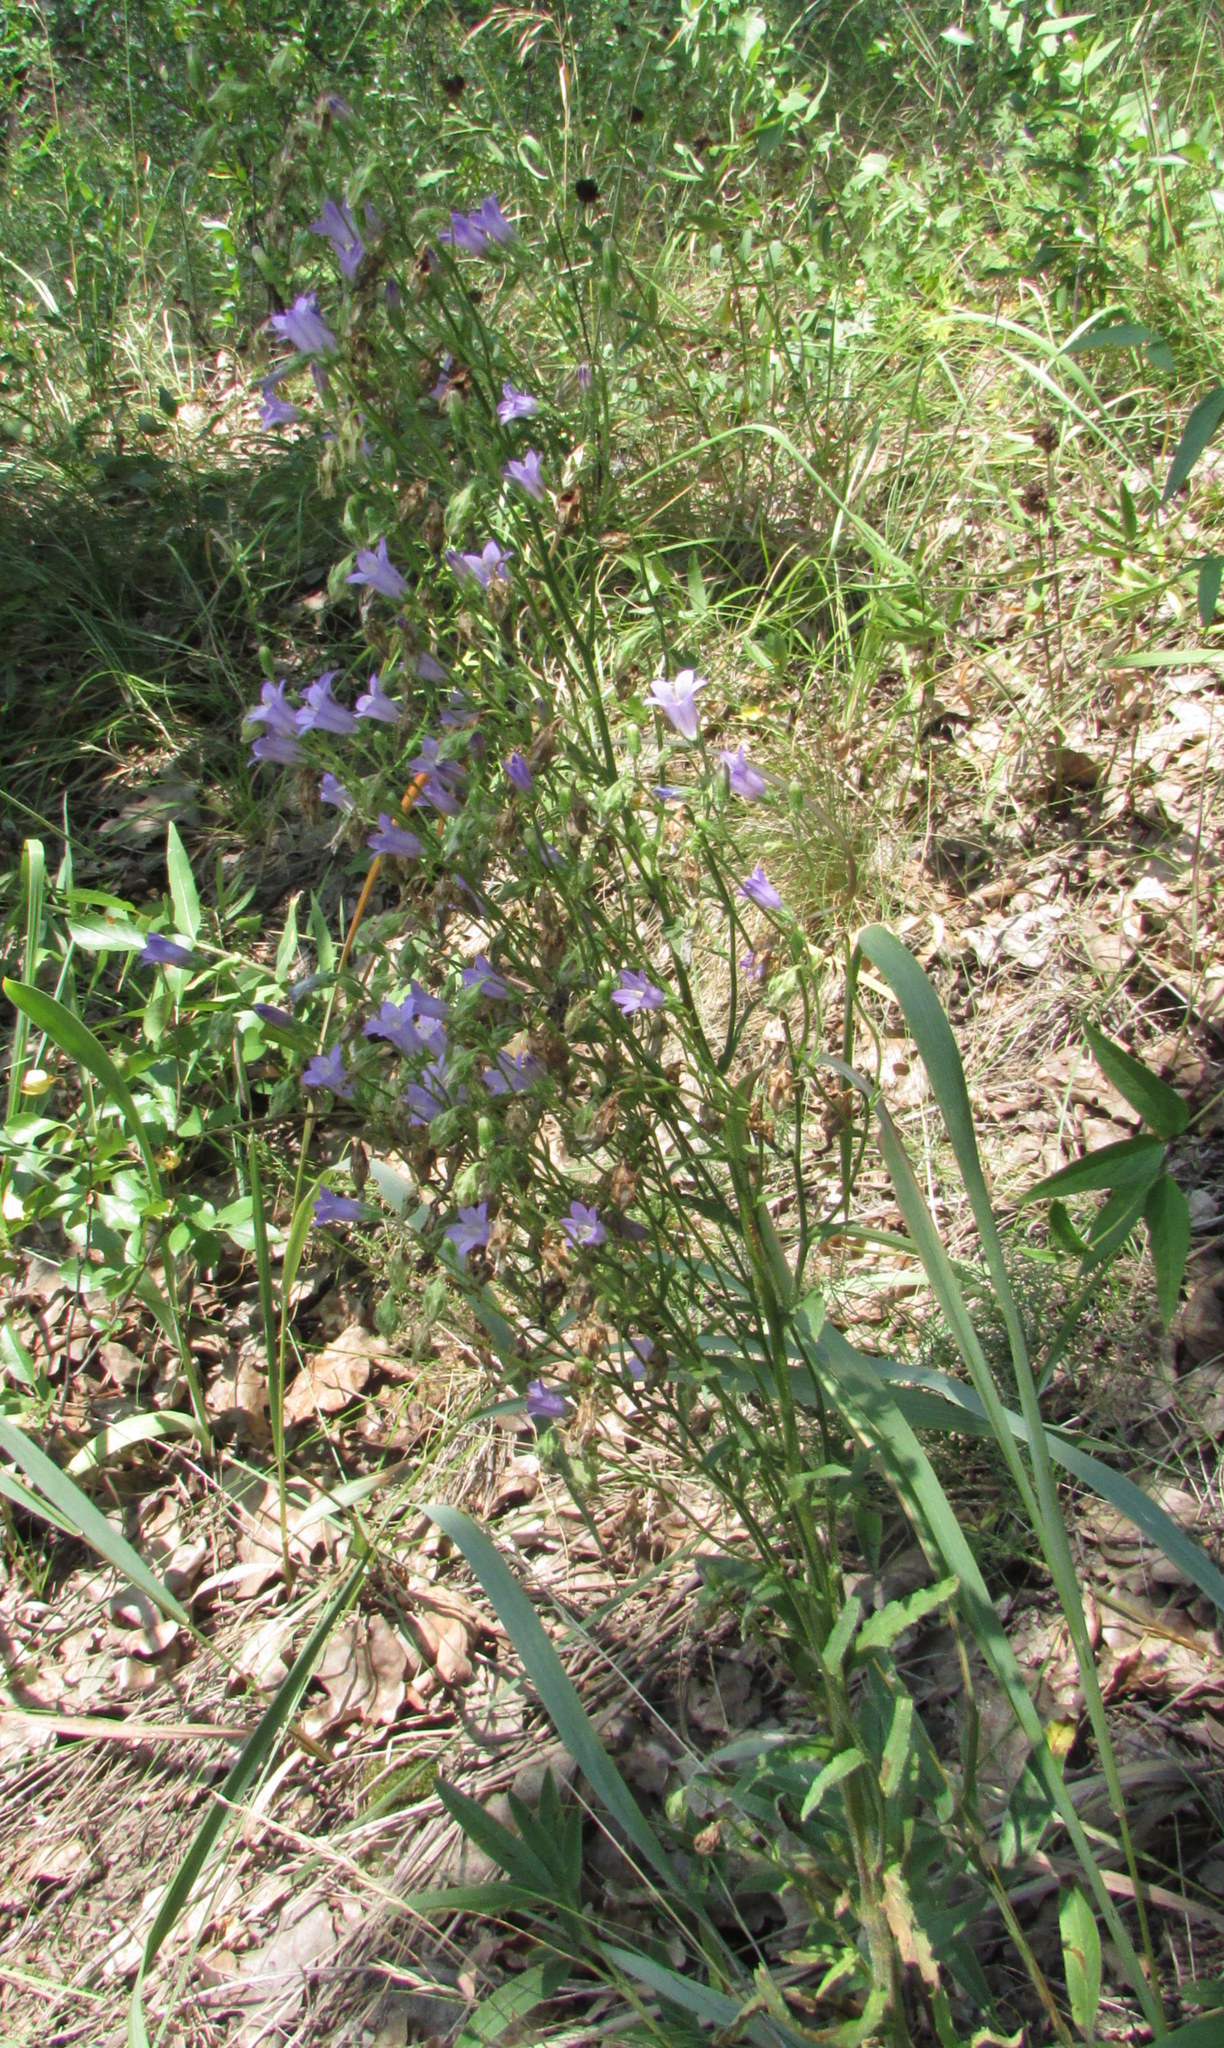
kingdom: Plantae
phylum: Tracheophyta
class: Magnoliopsida
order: Asterales
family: Campanulaceae
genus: Campanula
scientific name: Campanula sibirica
